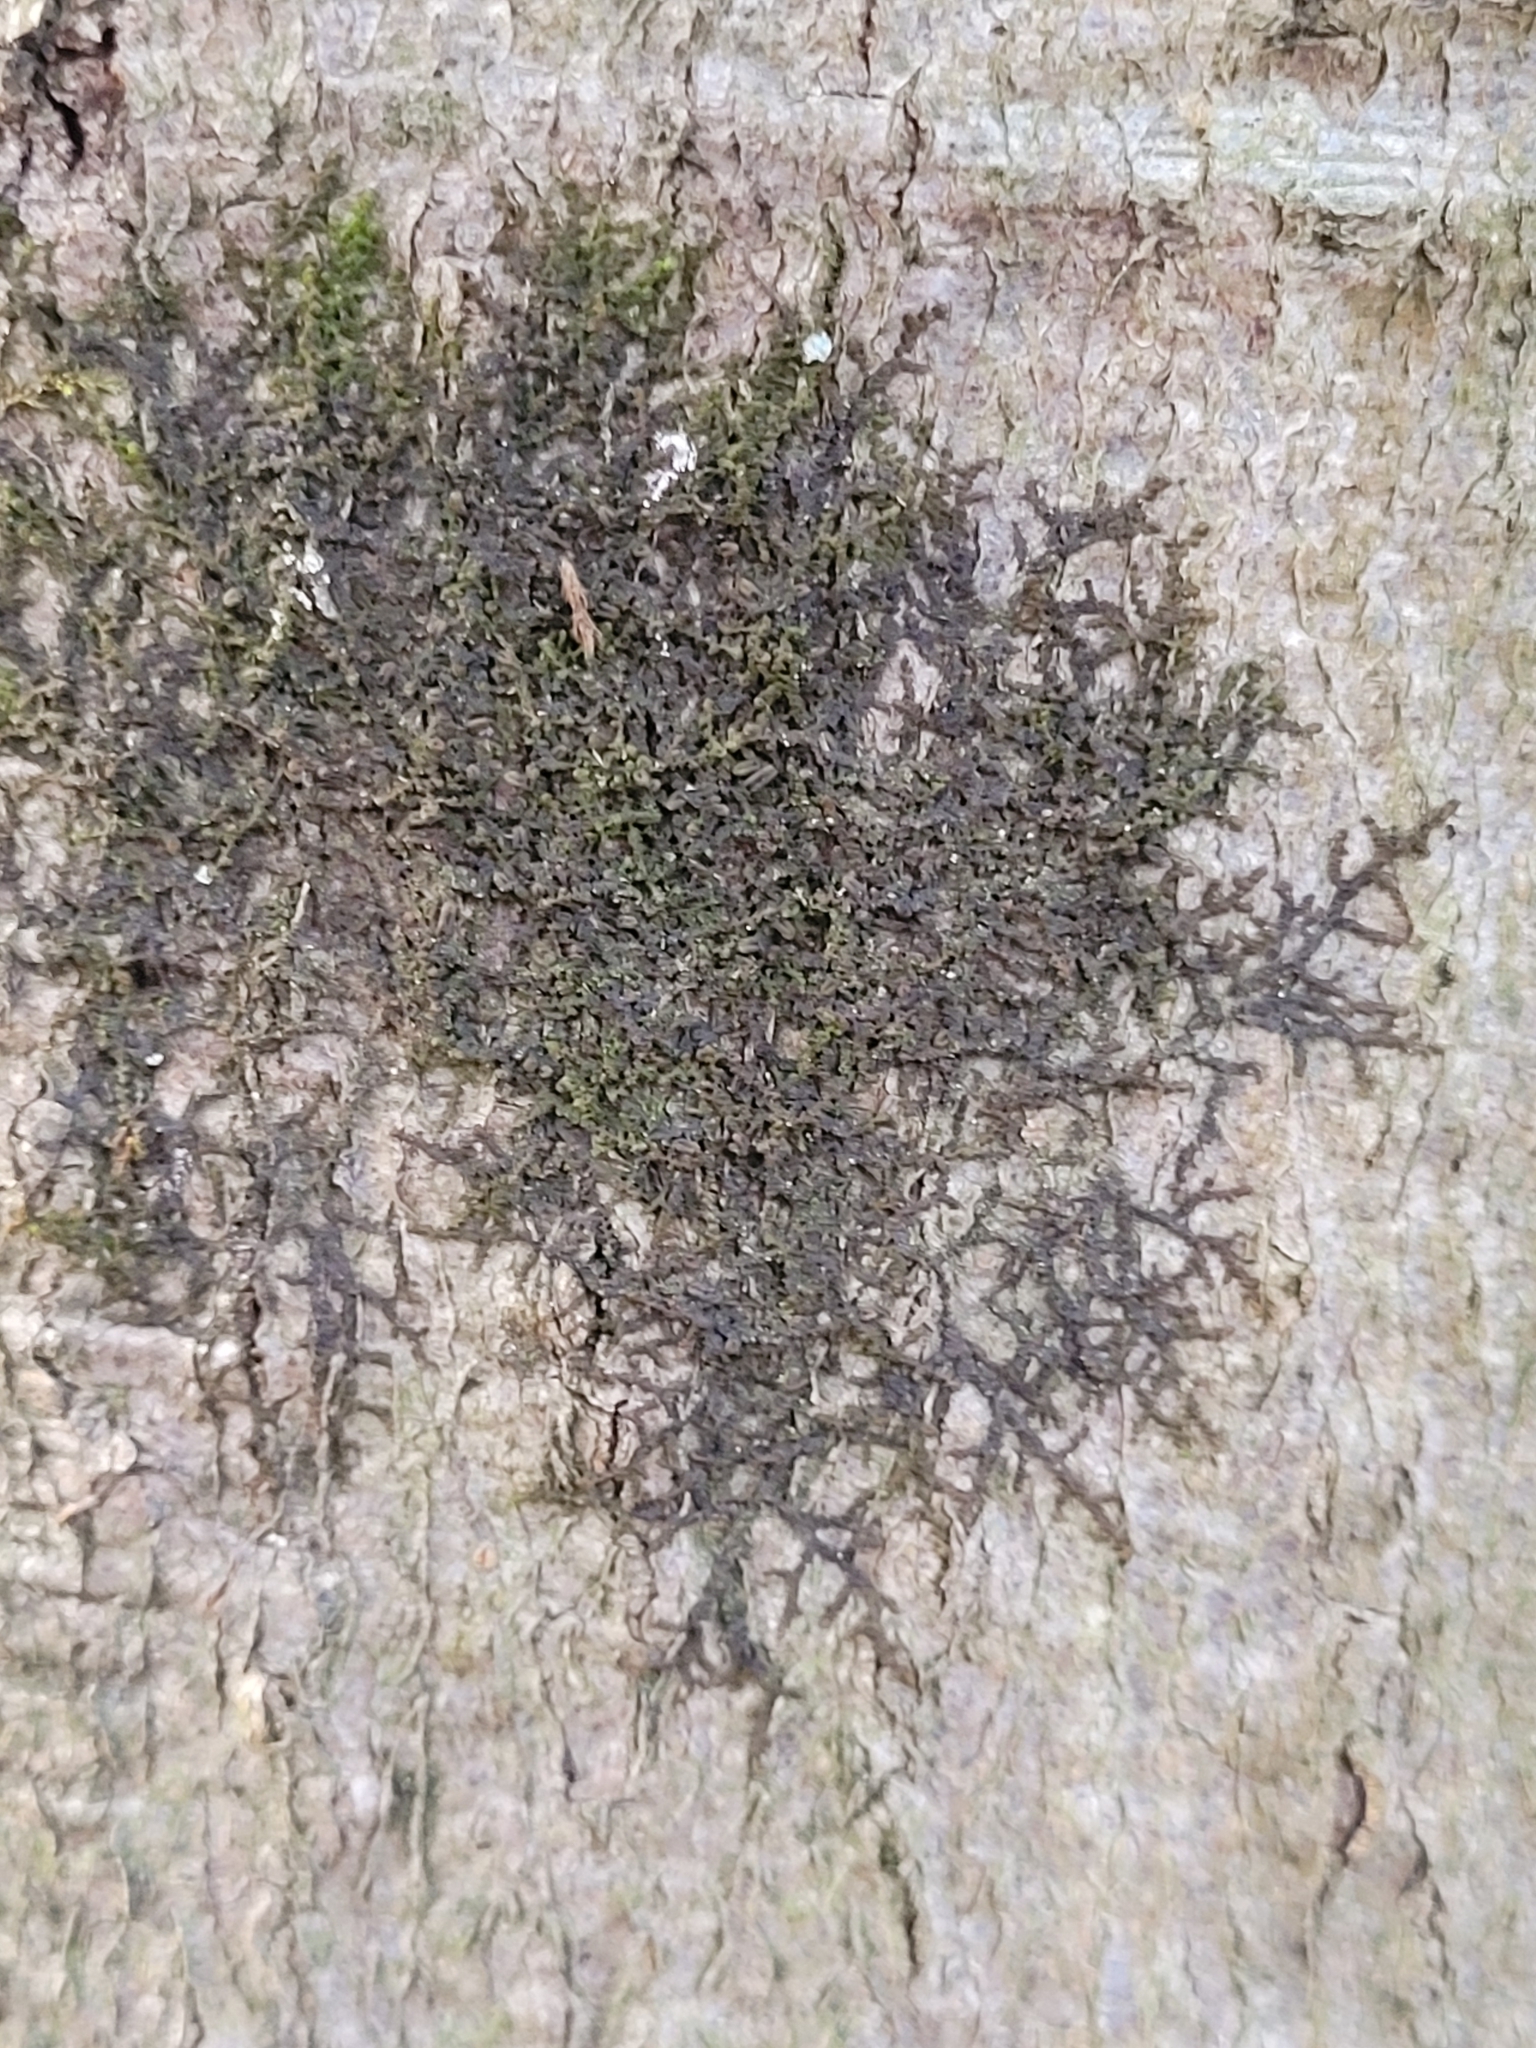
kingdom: Plantae
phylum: Marchantiophyta
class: Jungermanniopsida
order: Porellales
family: Frullaniaceae
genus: Frullania
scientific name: Frullania dilatata
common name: Dilated scalewort
